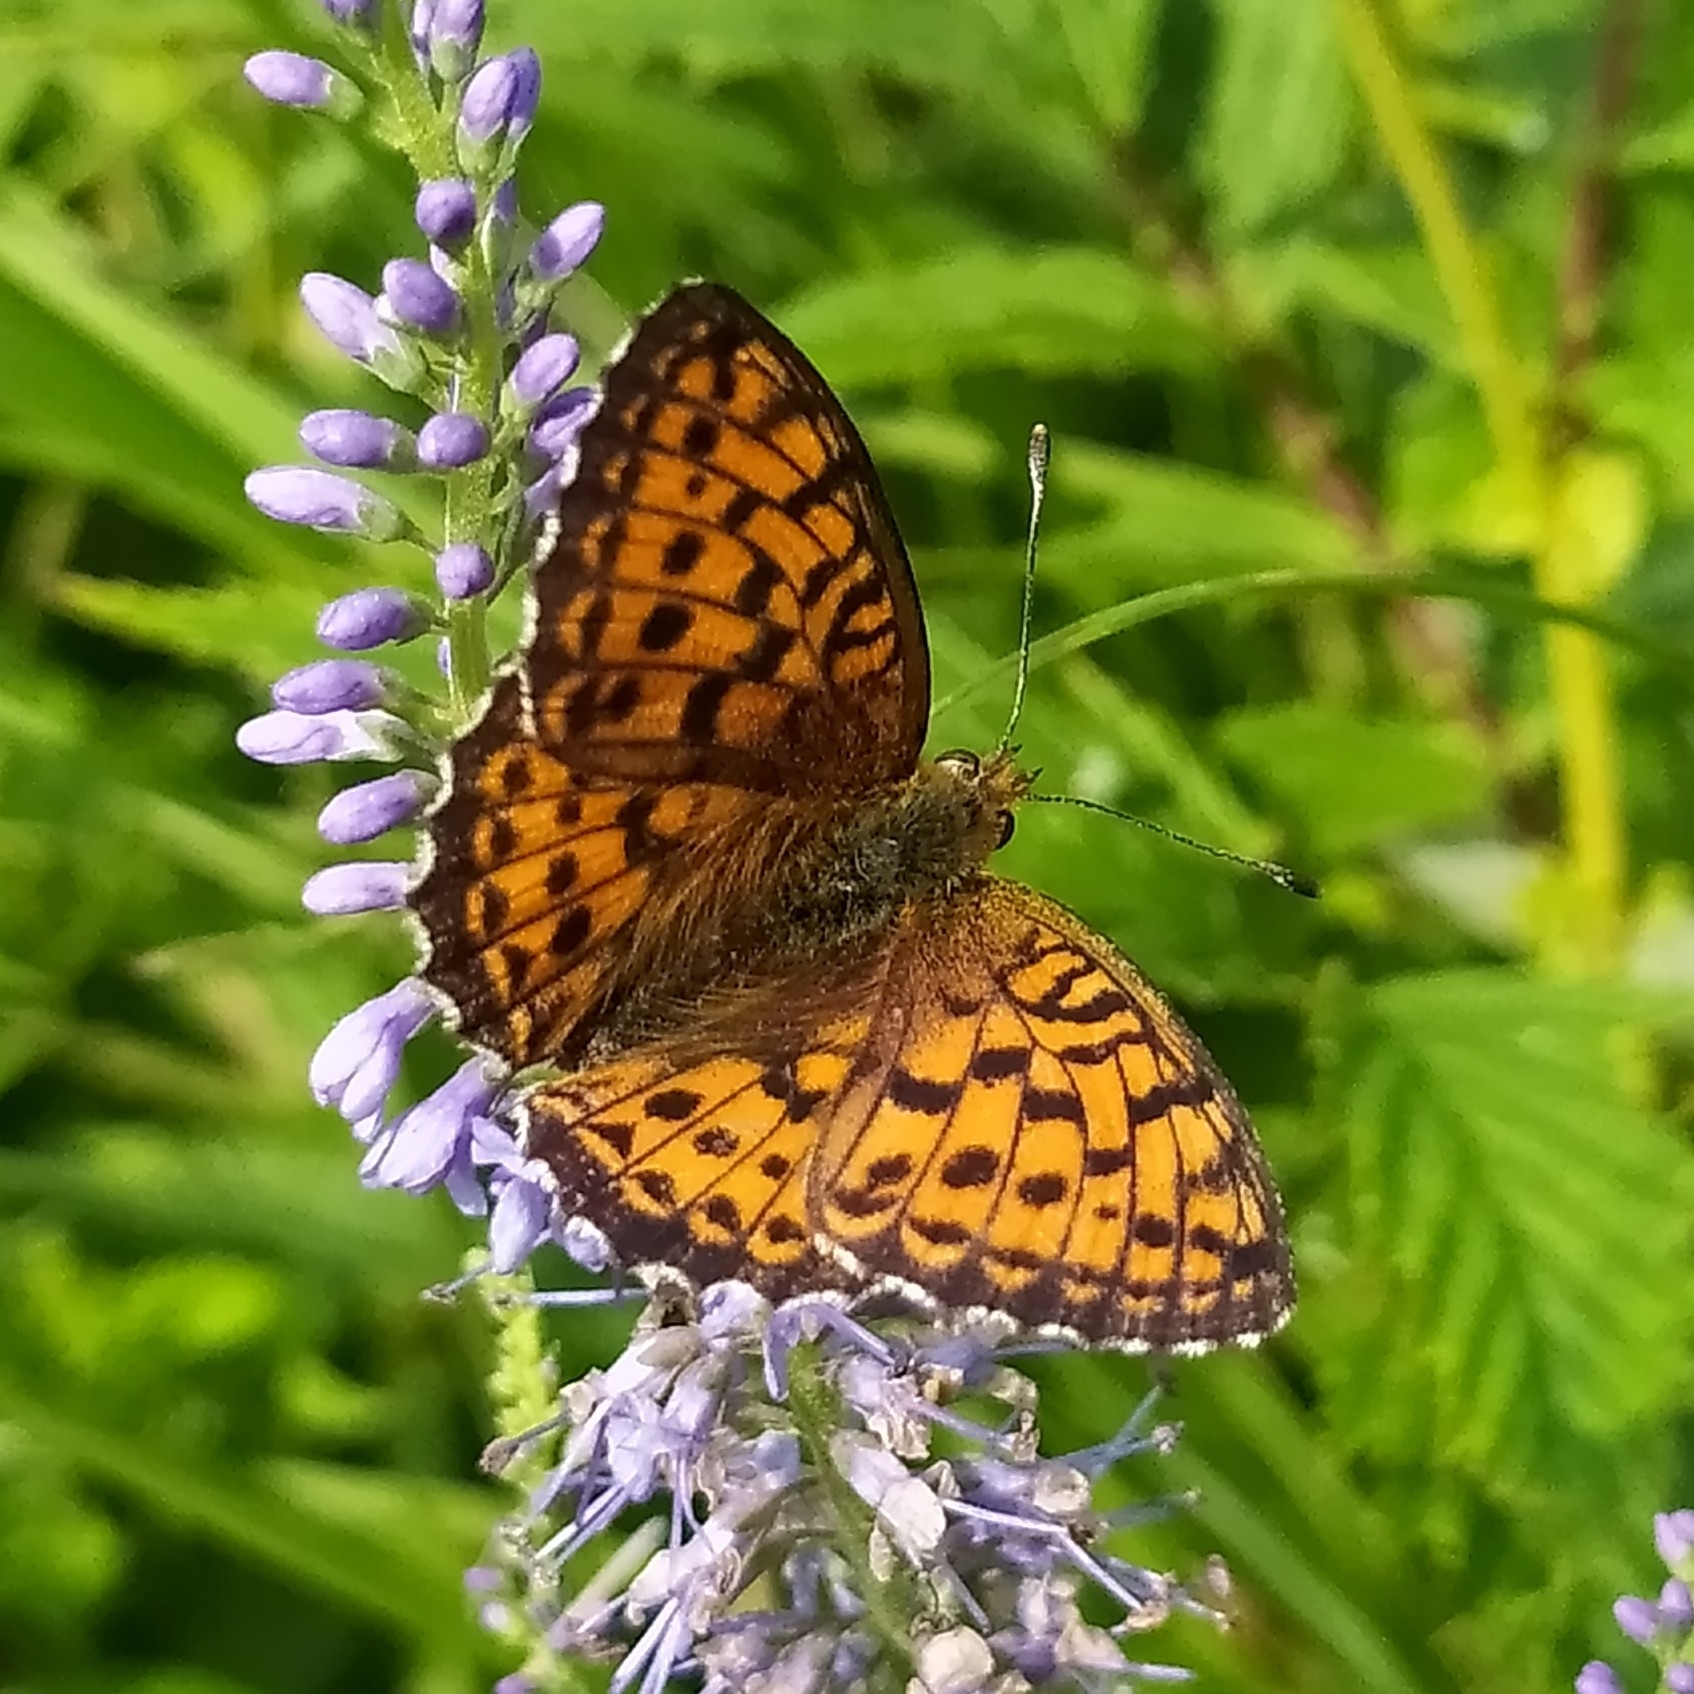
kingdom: Animalia
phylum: Arthropoda
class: Insecta
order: Lepidoptera
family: Nymphalidae
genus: Brenthis
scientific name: Brenthis ino
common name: Lesser marbled fritillary
